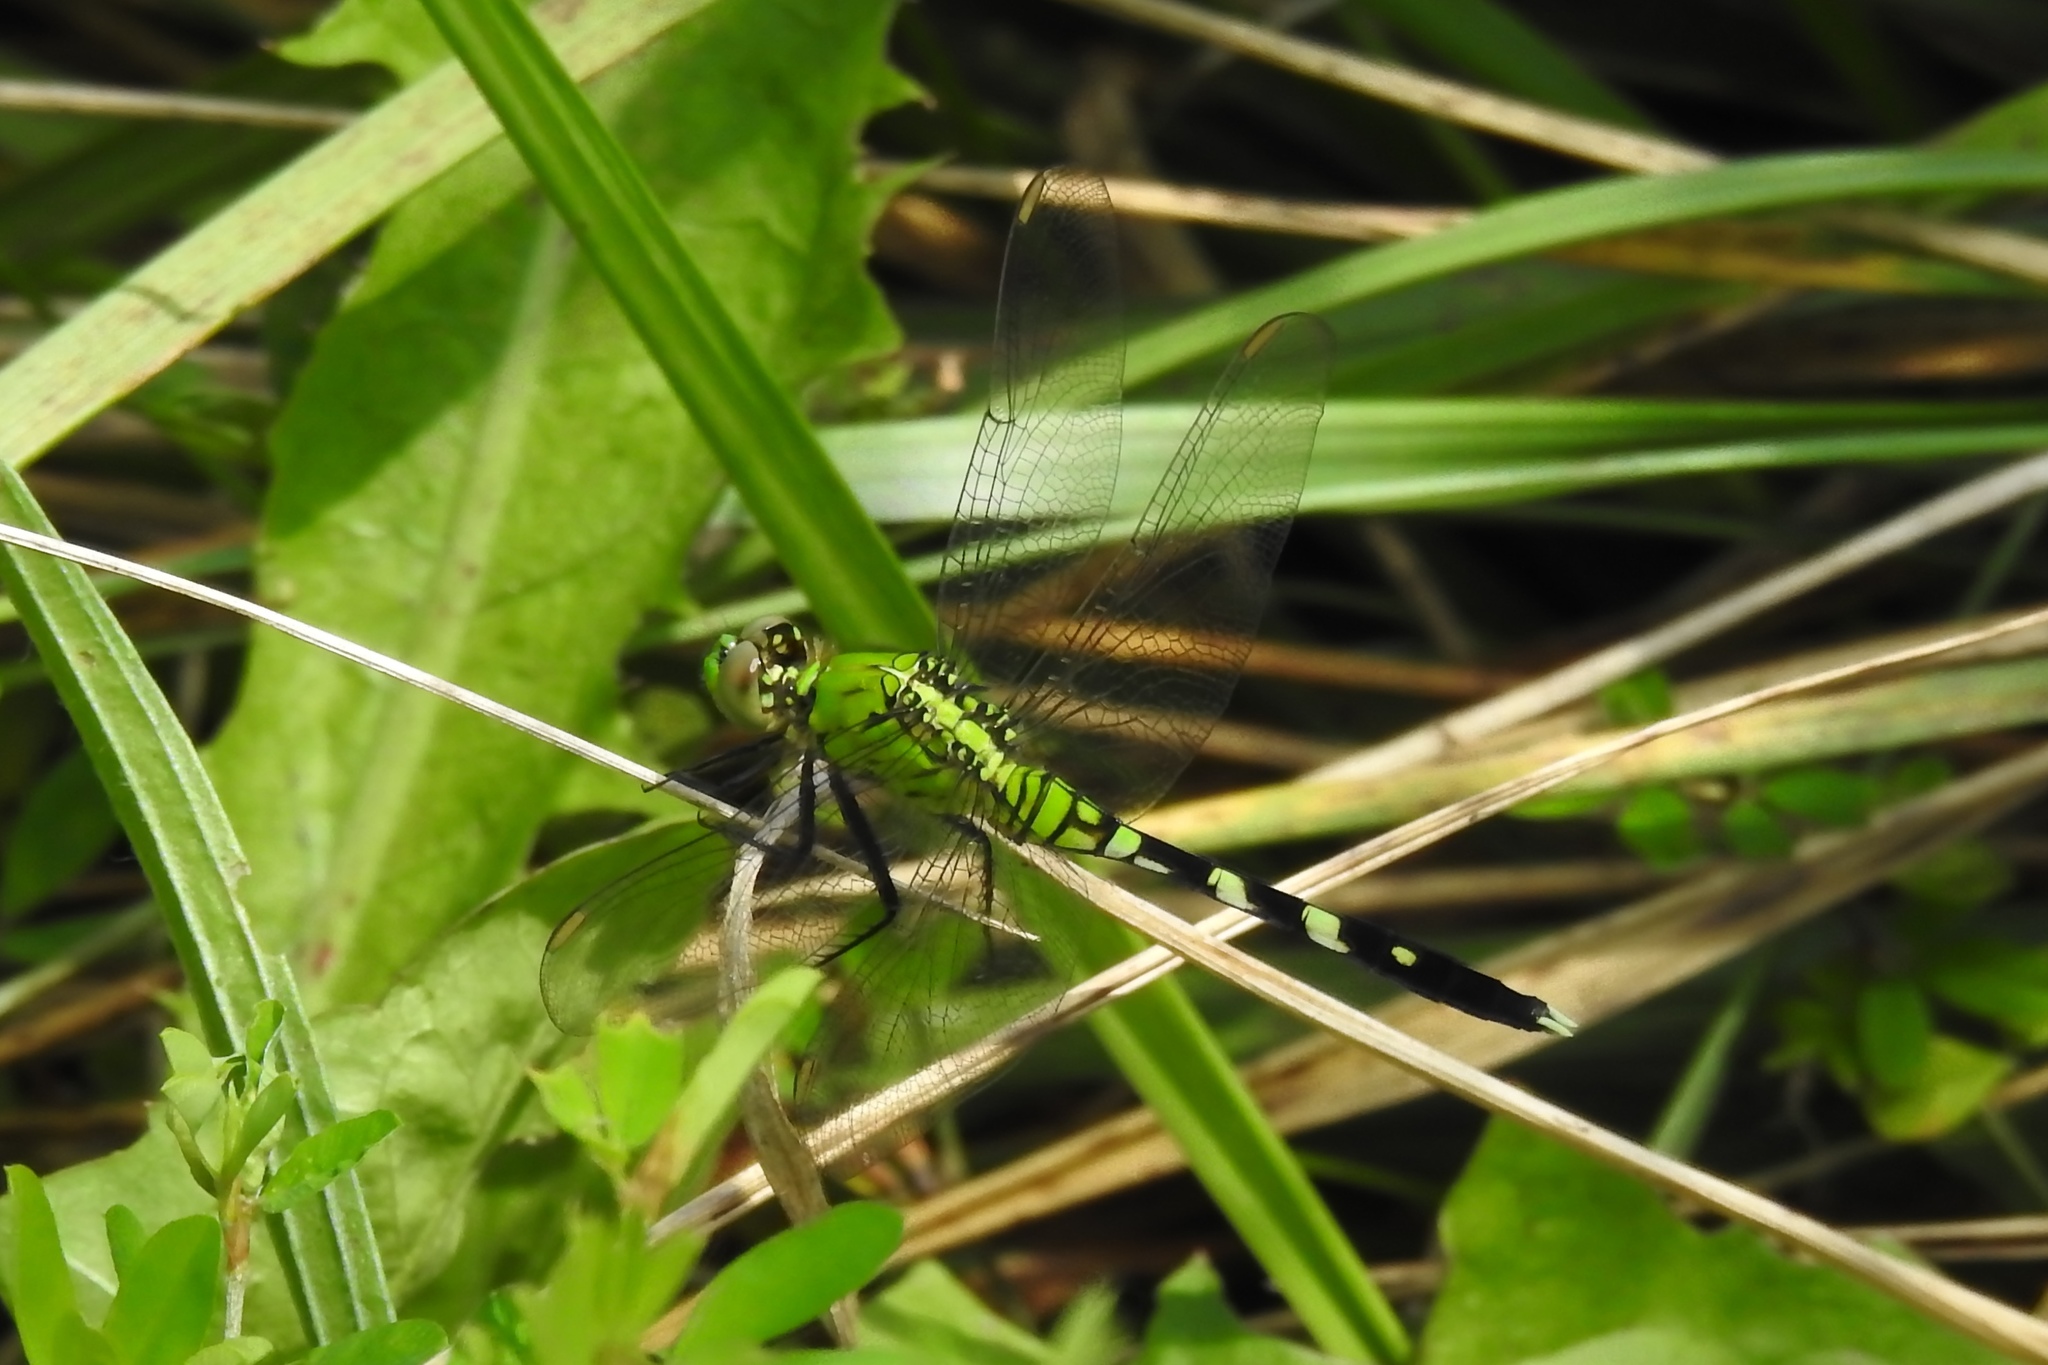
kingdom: Animalia
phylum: Arthropoda
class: Insecta
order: Odonata
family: Libellulidae
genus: Erythemis
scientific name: Erythemis simplicicollis
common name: Eastern pondhawk
